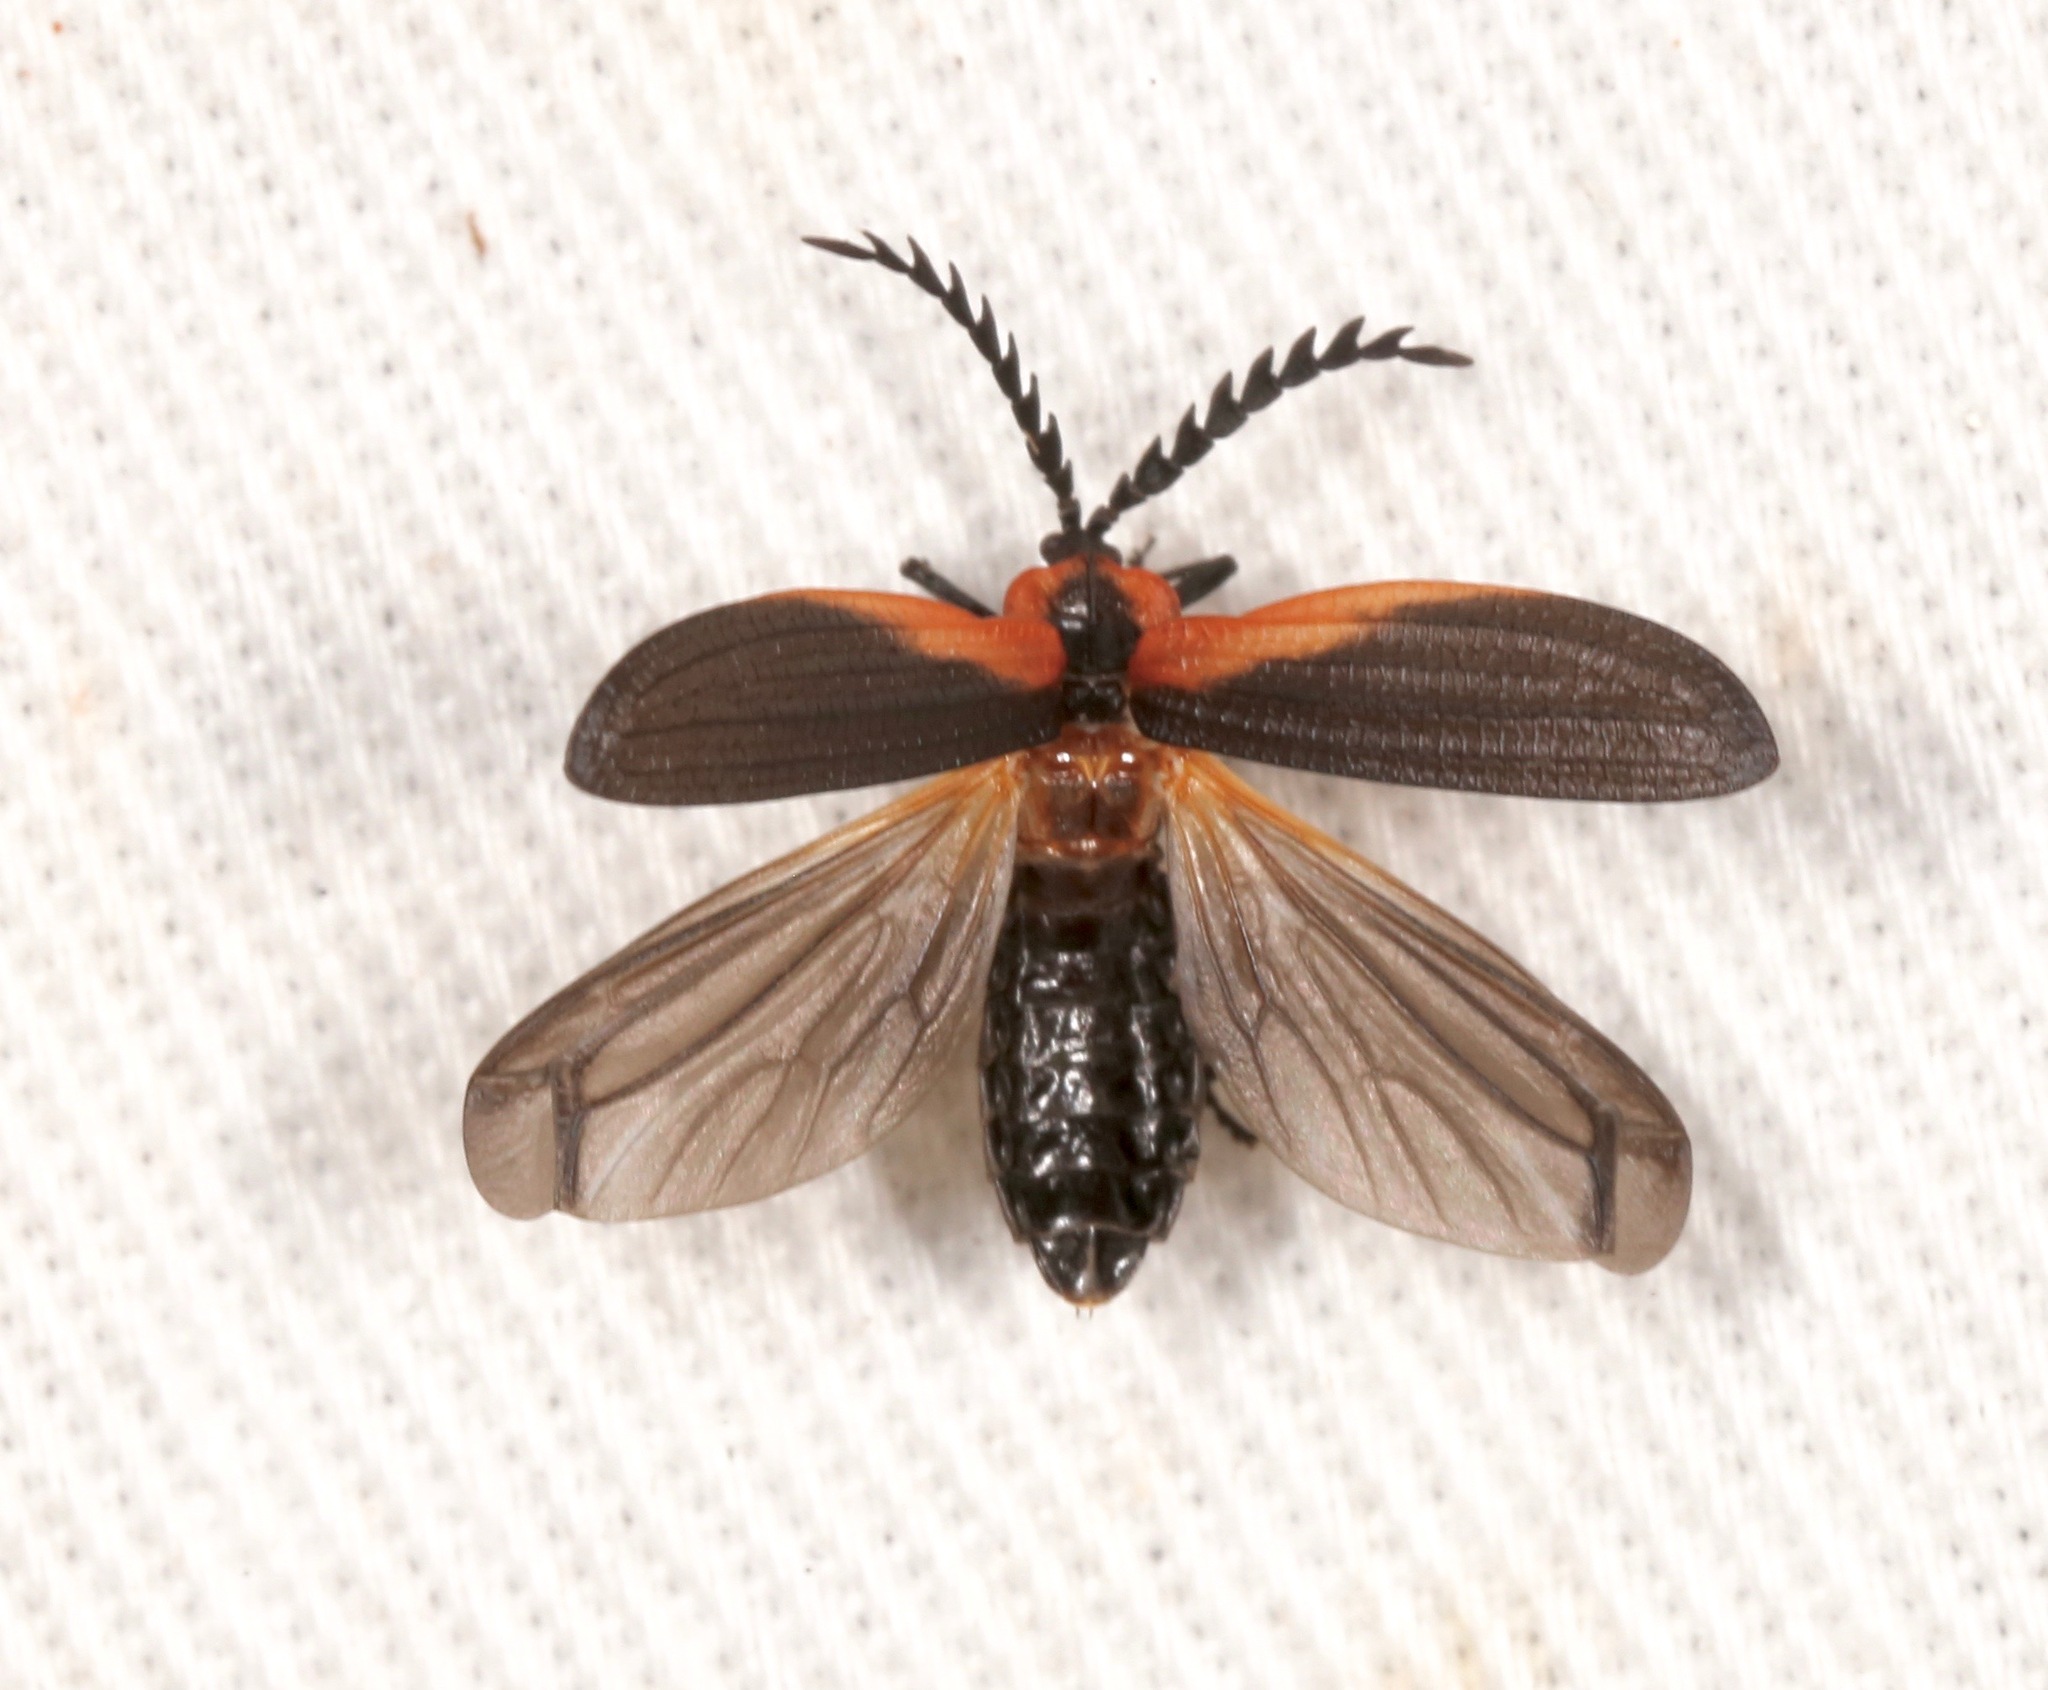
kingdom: Animalia
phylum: Arthropoda
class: Insecta
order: Coleoptera
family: Lycidae
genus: Caenia
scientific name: Caenia amplicornis
